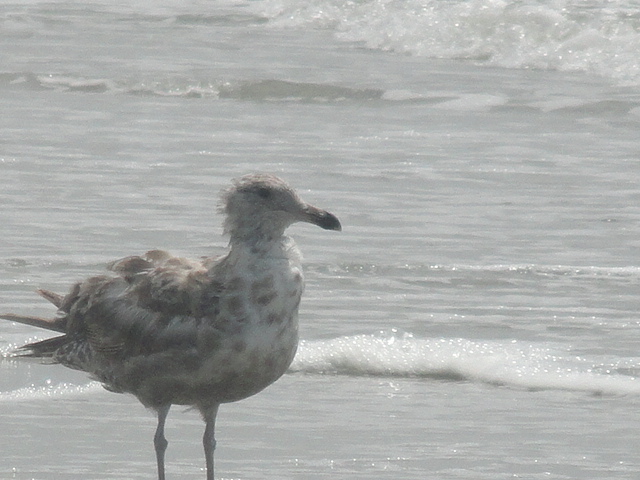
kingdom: Animalia
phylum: Chordata
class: Aves
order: Charadriiformes
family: Laridae
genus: Larus
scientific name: Larus argentatus
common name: Herring gull
